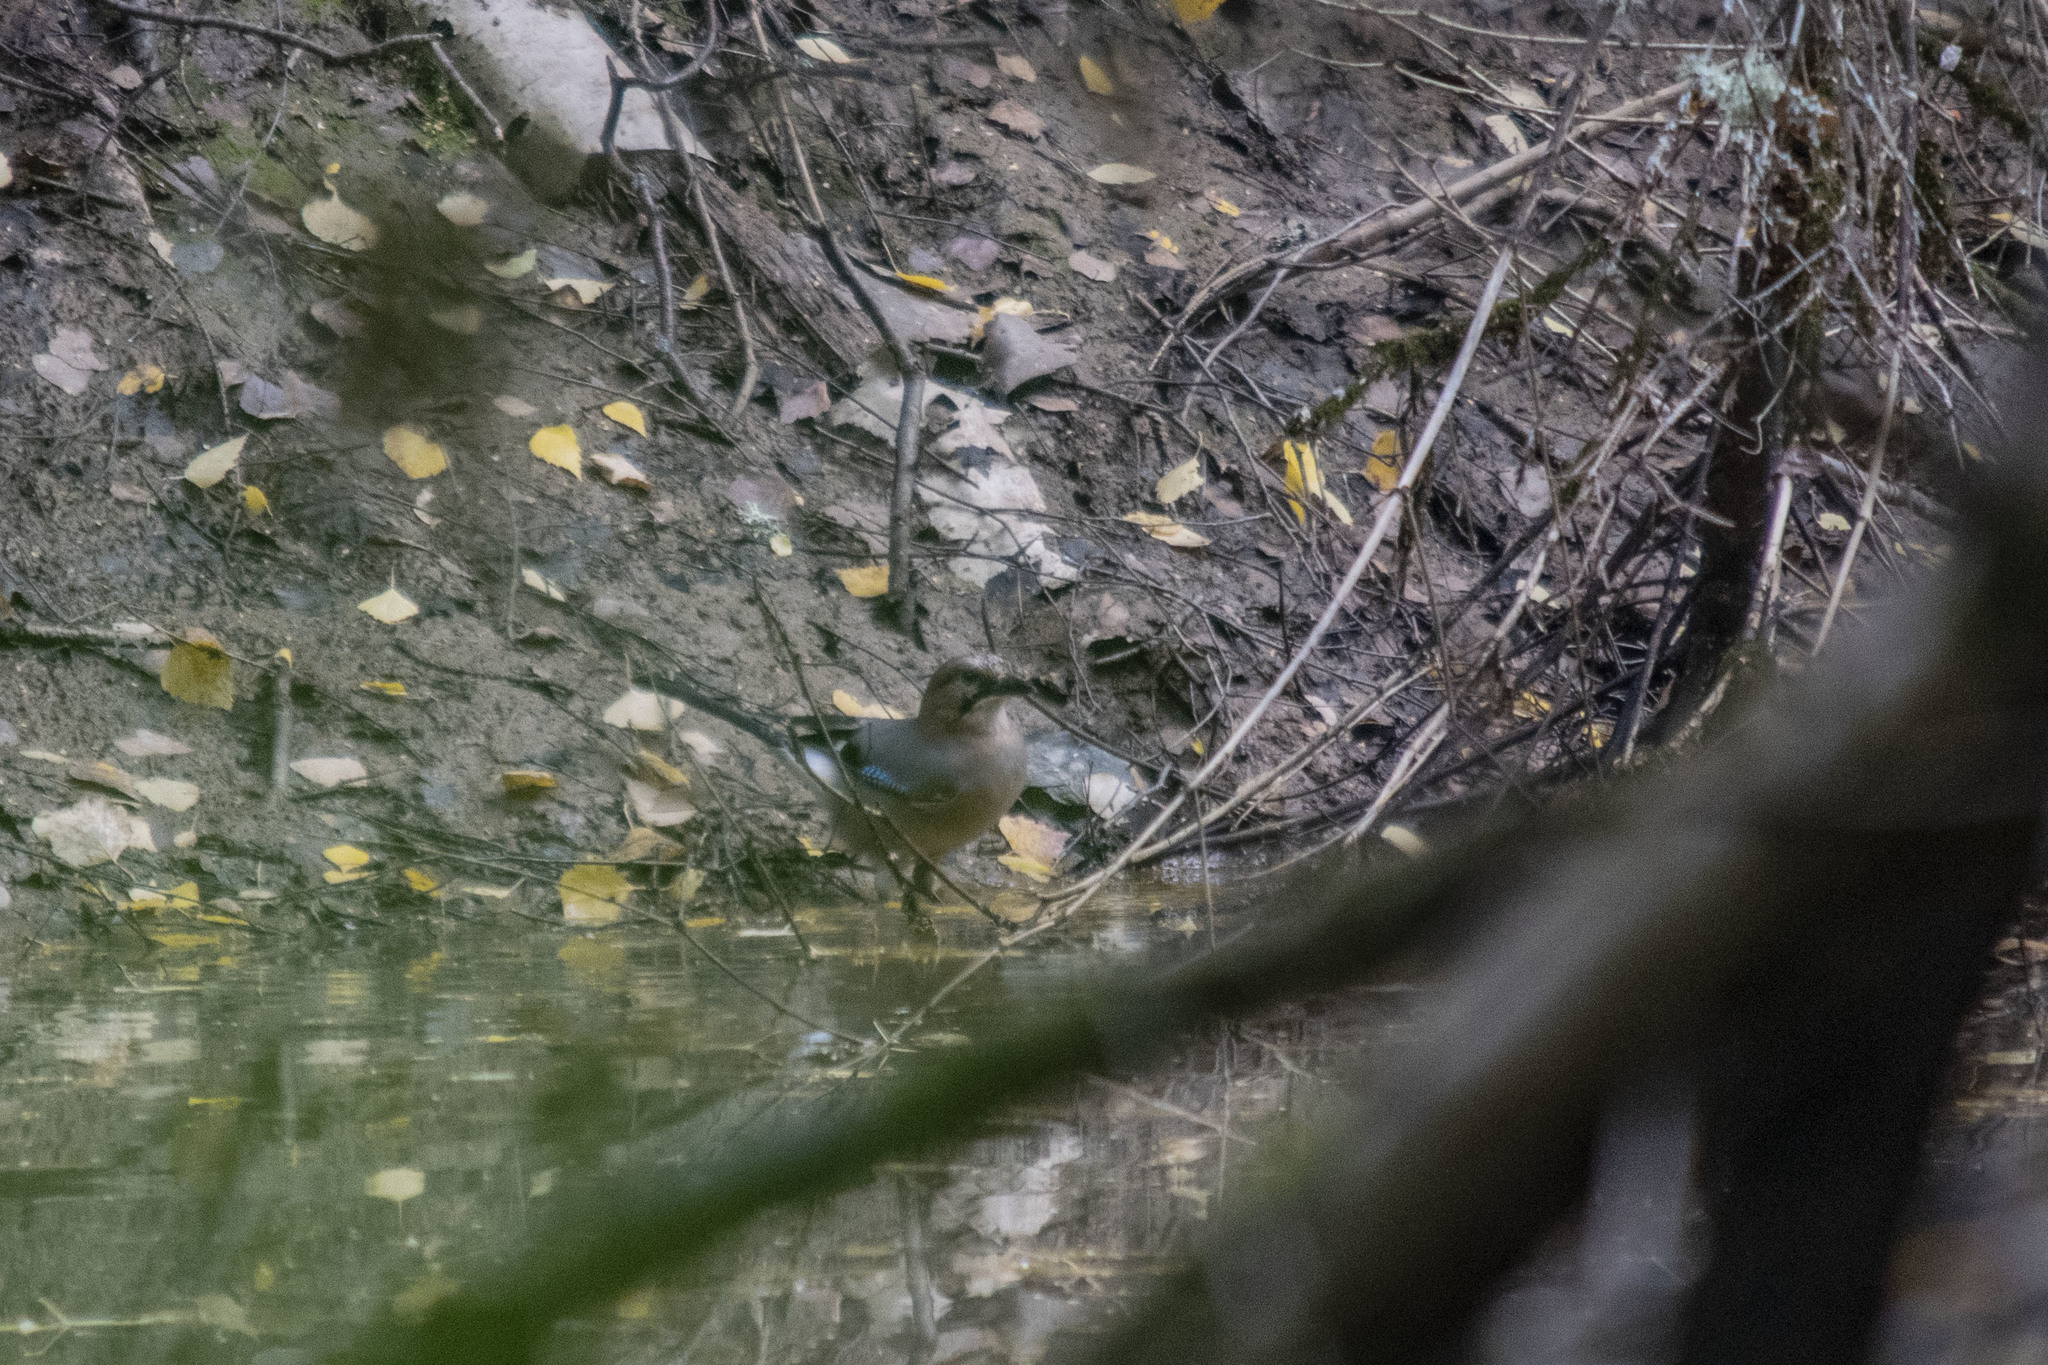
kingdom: Animalia
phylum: Chordata
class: Aves
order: Passeriformes
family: Corvidae
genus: Garrulus
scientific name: Garrulus glandarius
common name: Eurasian jay
